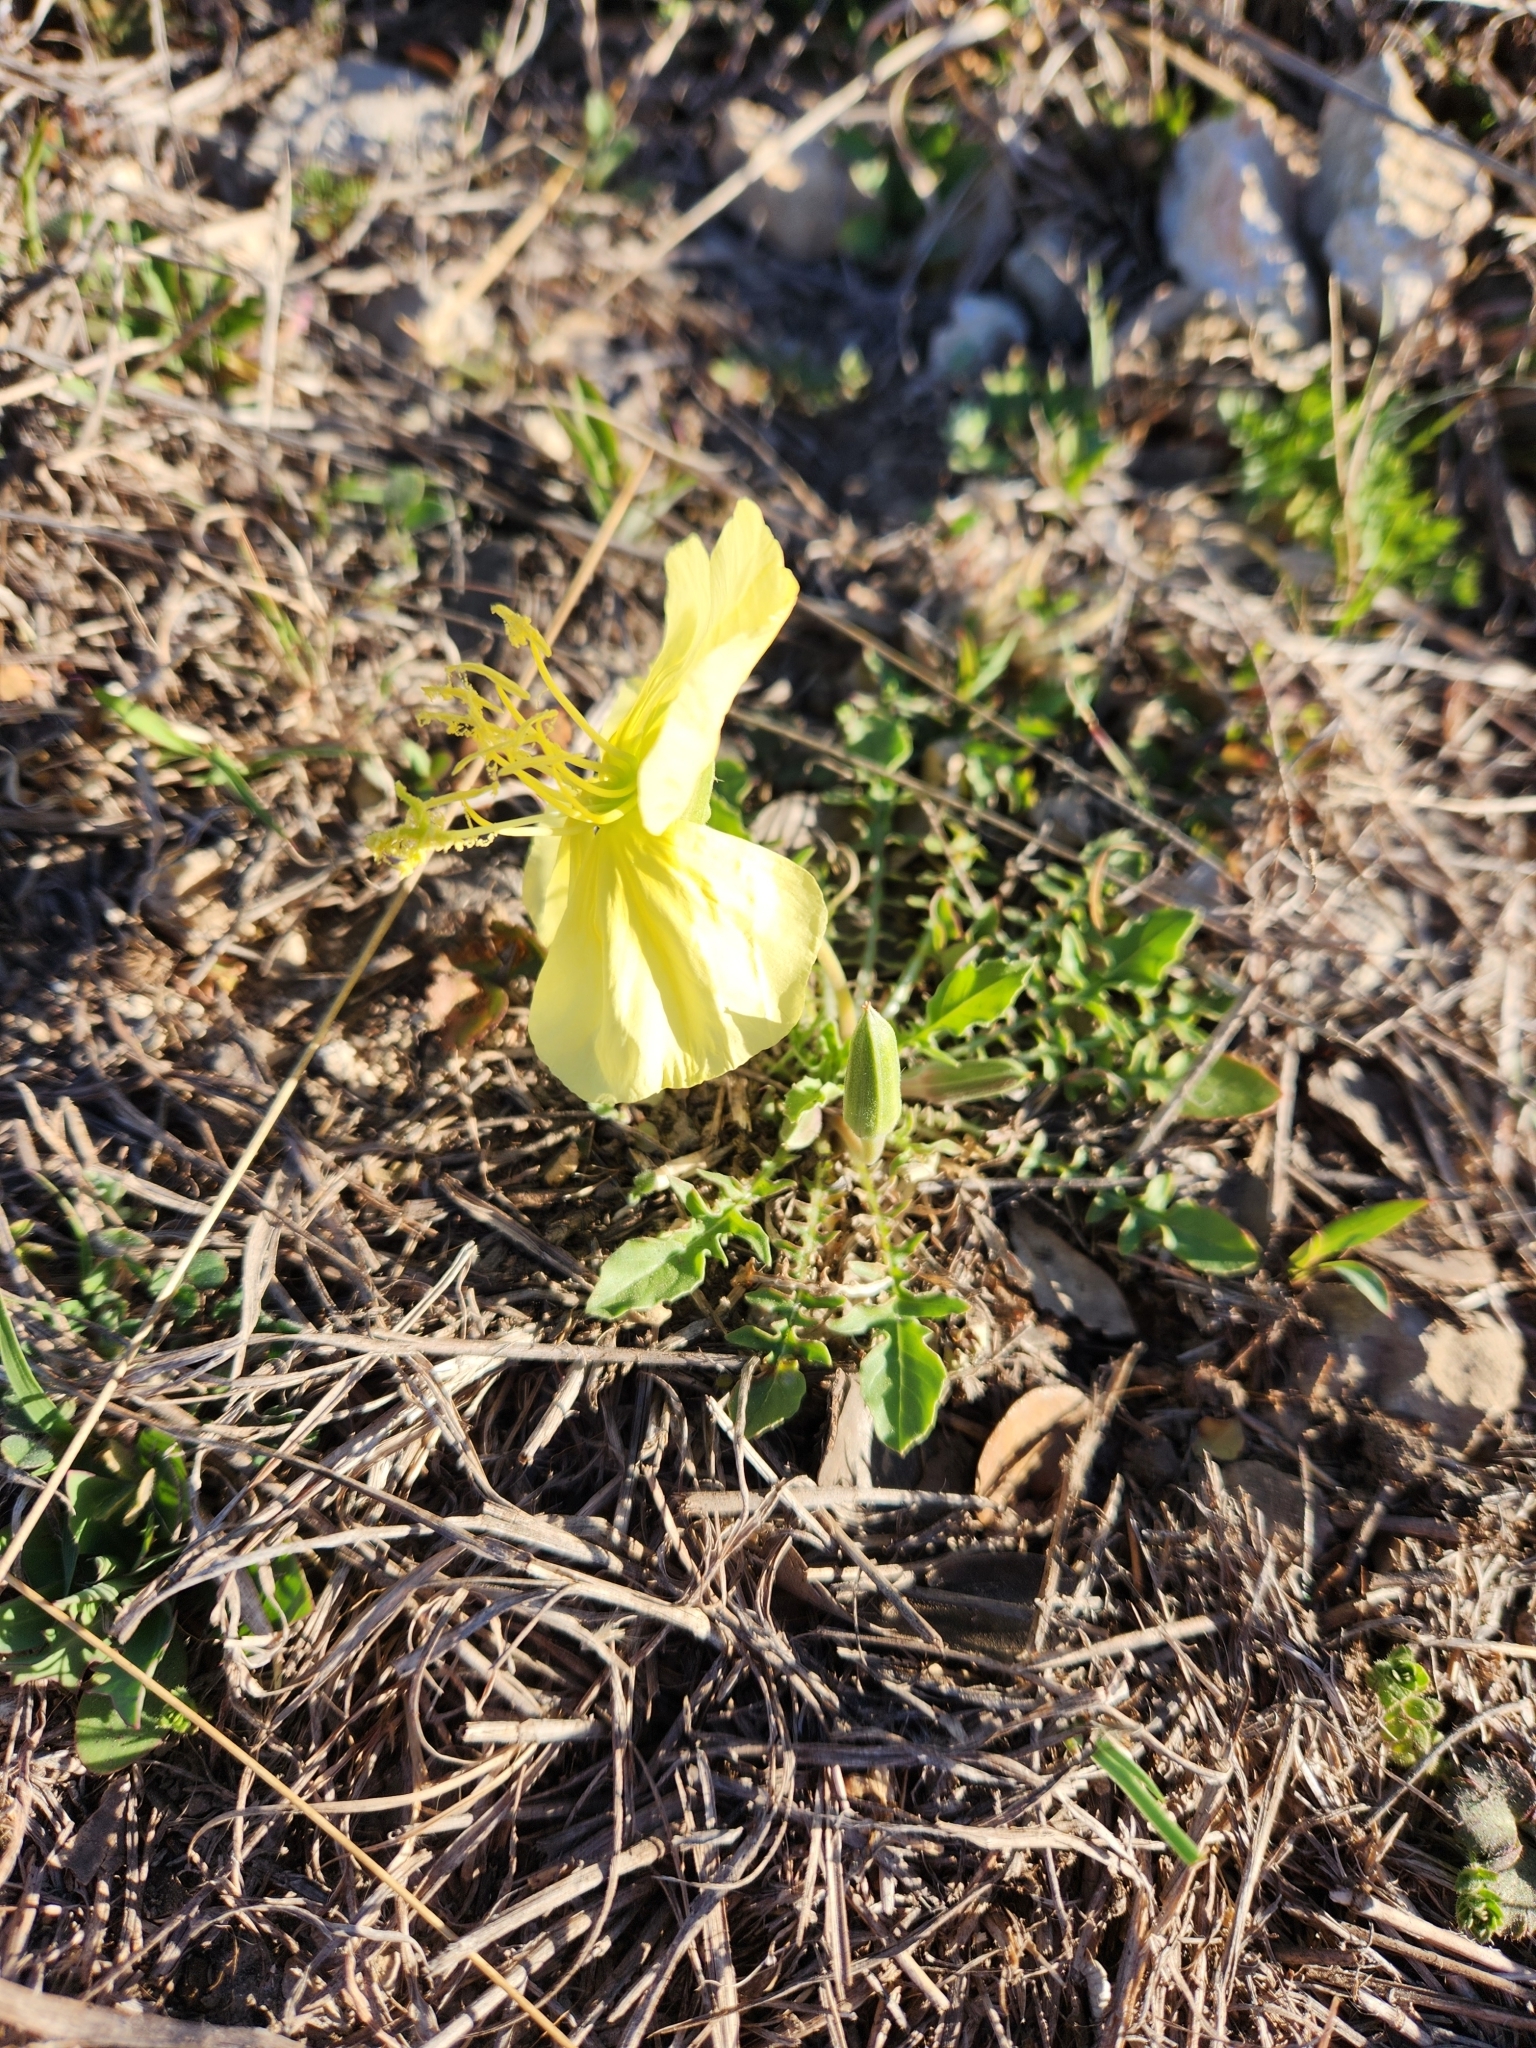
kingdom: Plantae
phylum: Tracheophyta
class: Magnoliopsida
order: Myrtales
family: Onagraceae
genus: Oenothera
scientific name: Oenothera triloba
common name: Sessile evening-primrose
